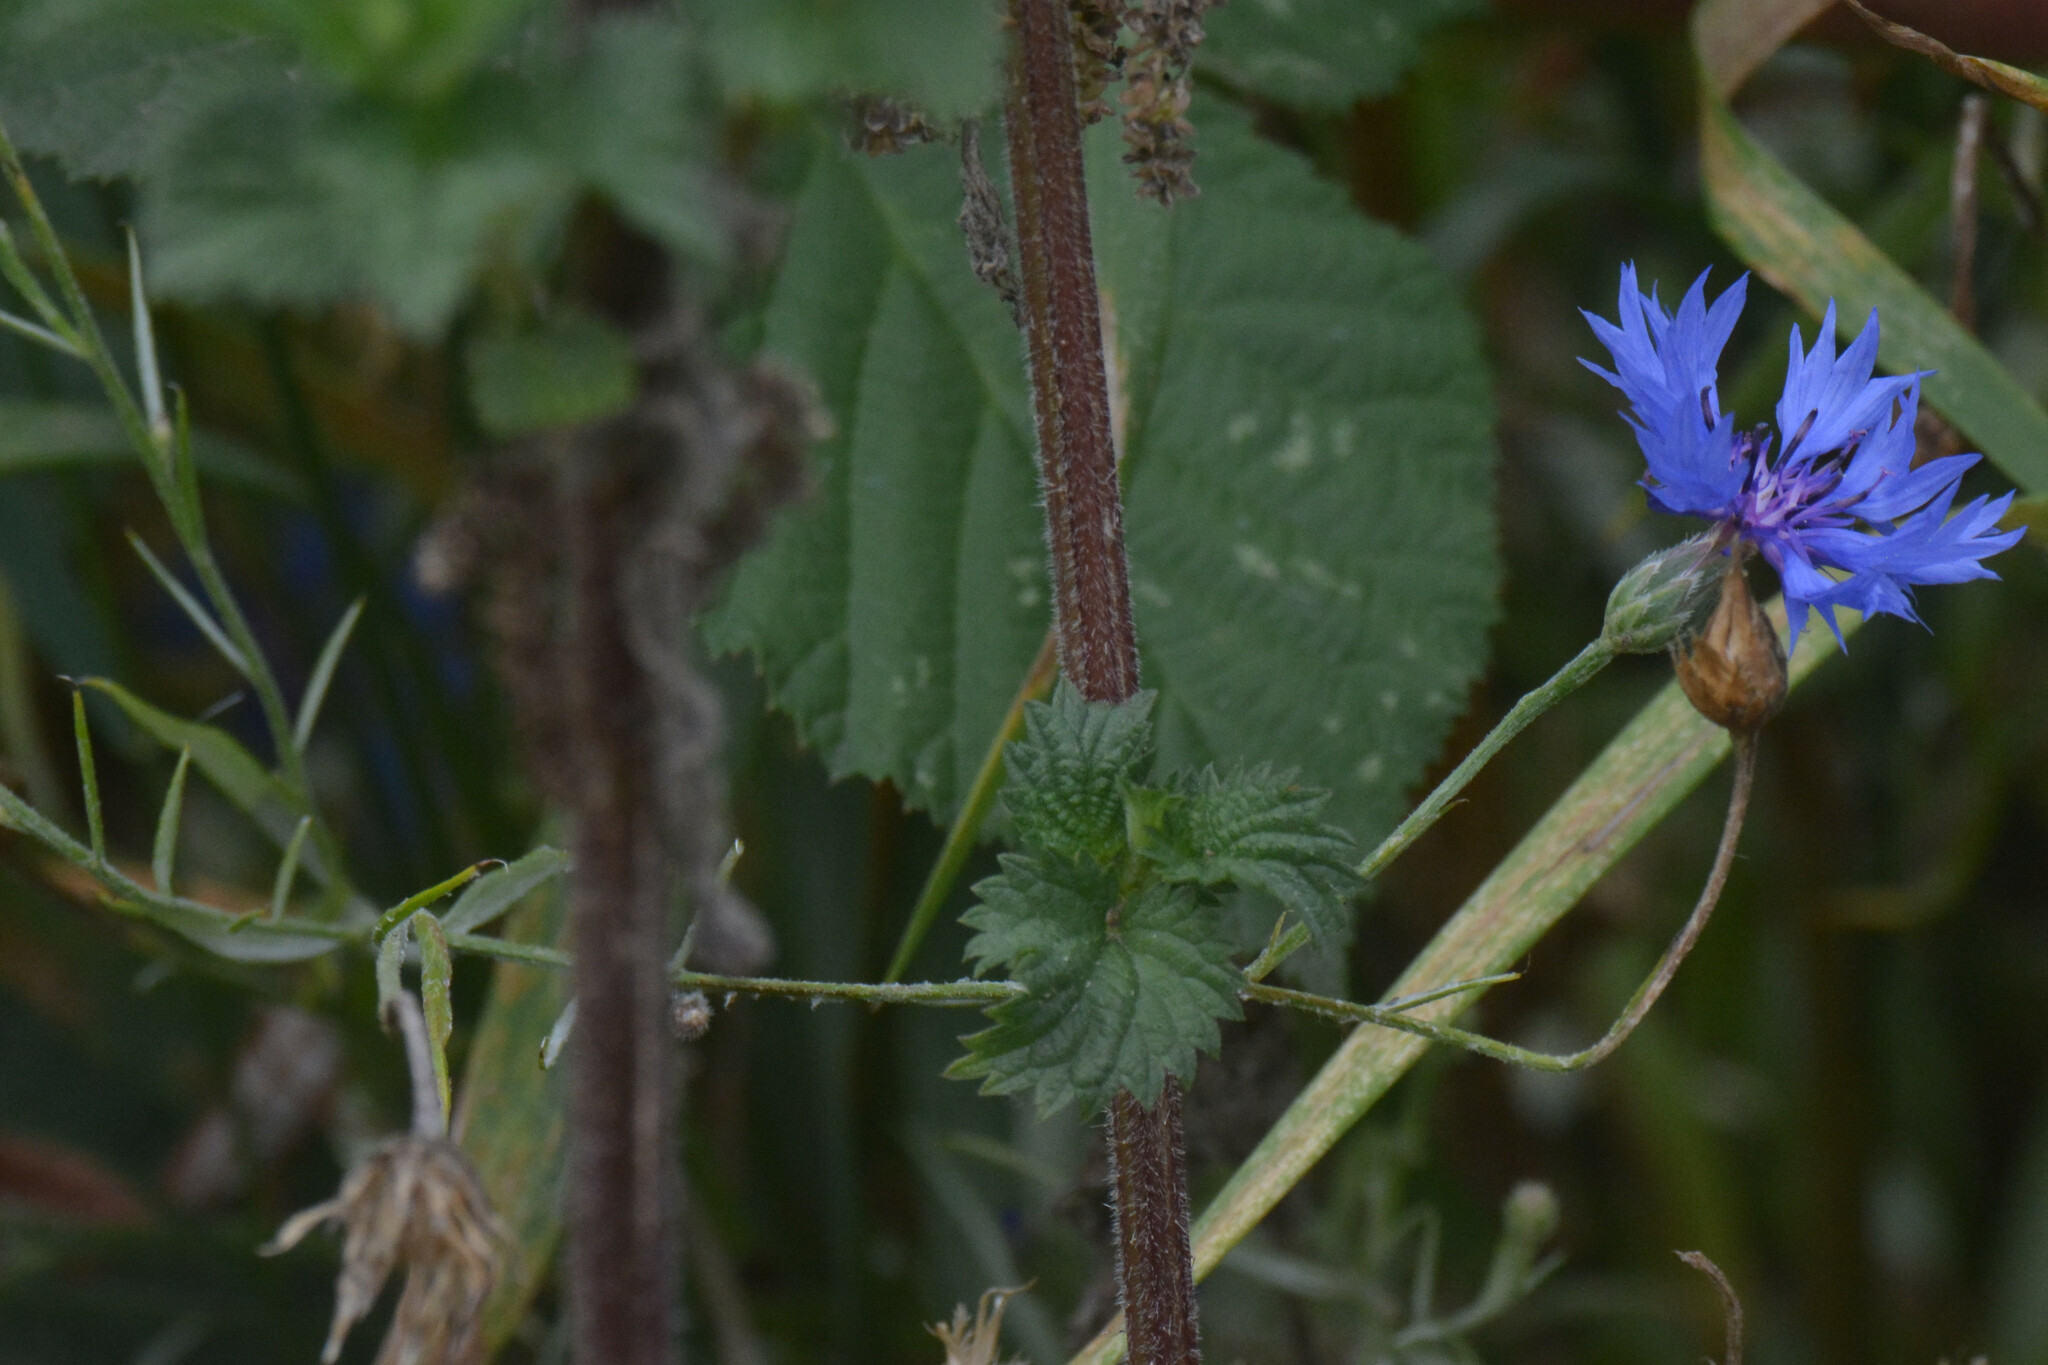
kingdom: Plantae
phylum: Tracheophyta
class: Magnoliopsida
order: Asterales
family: Asteraceae
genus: Centaurea
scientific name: Centaurea cyanus
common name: Cornflower
